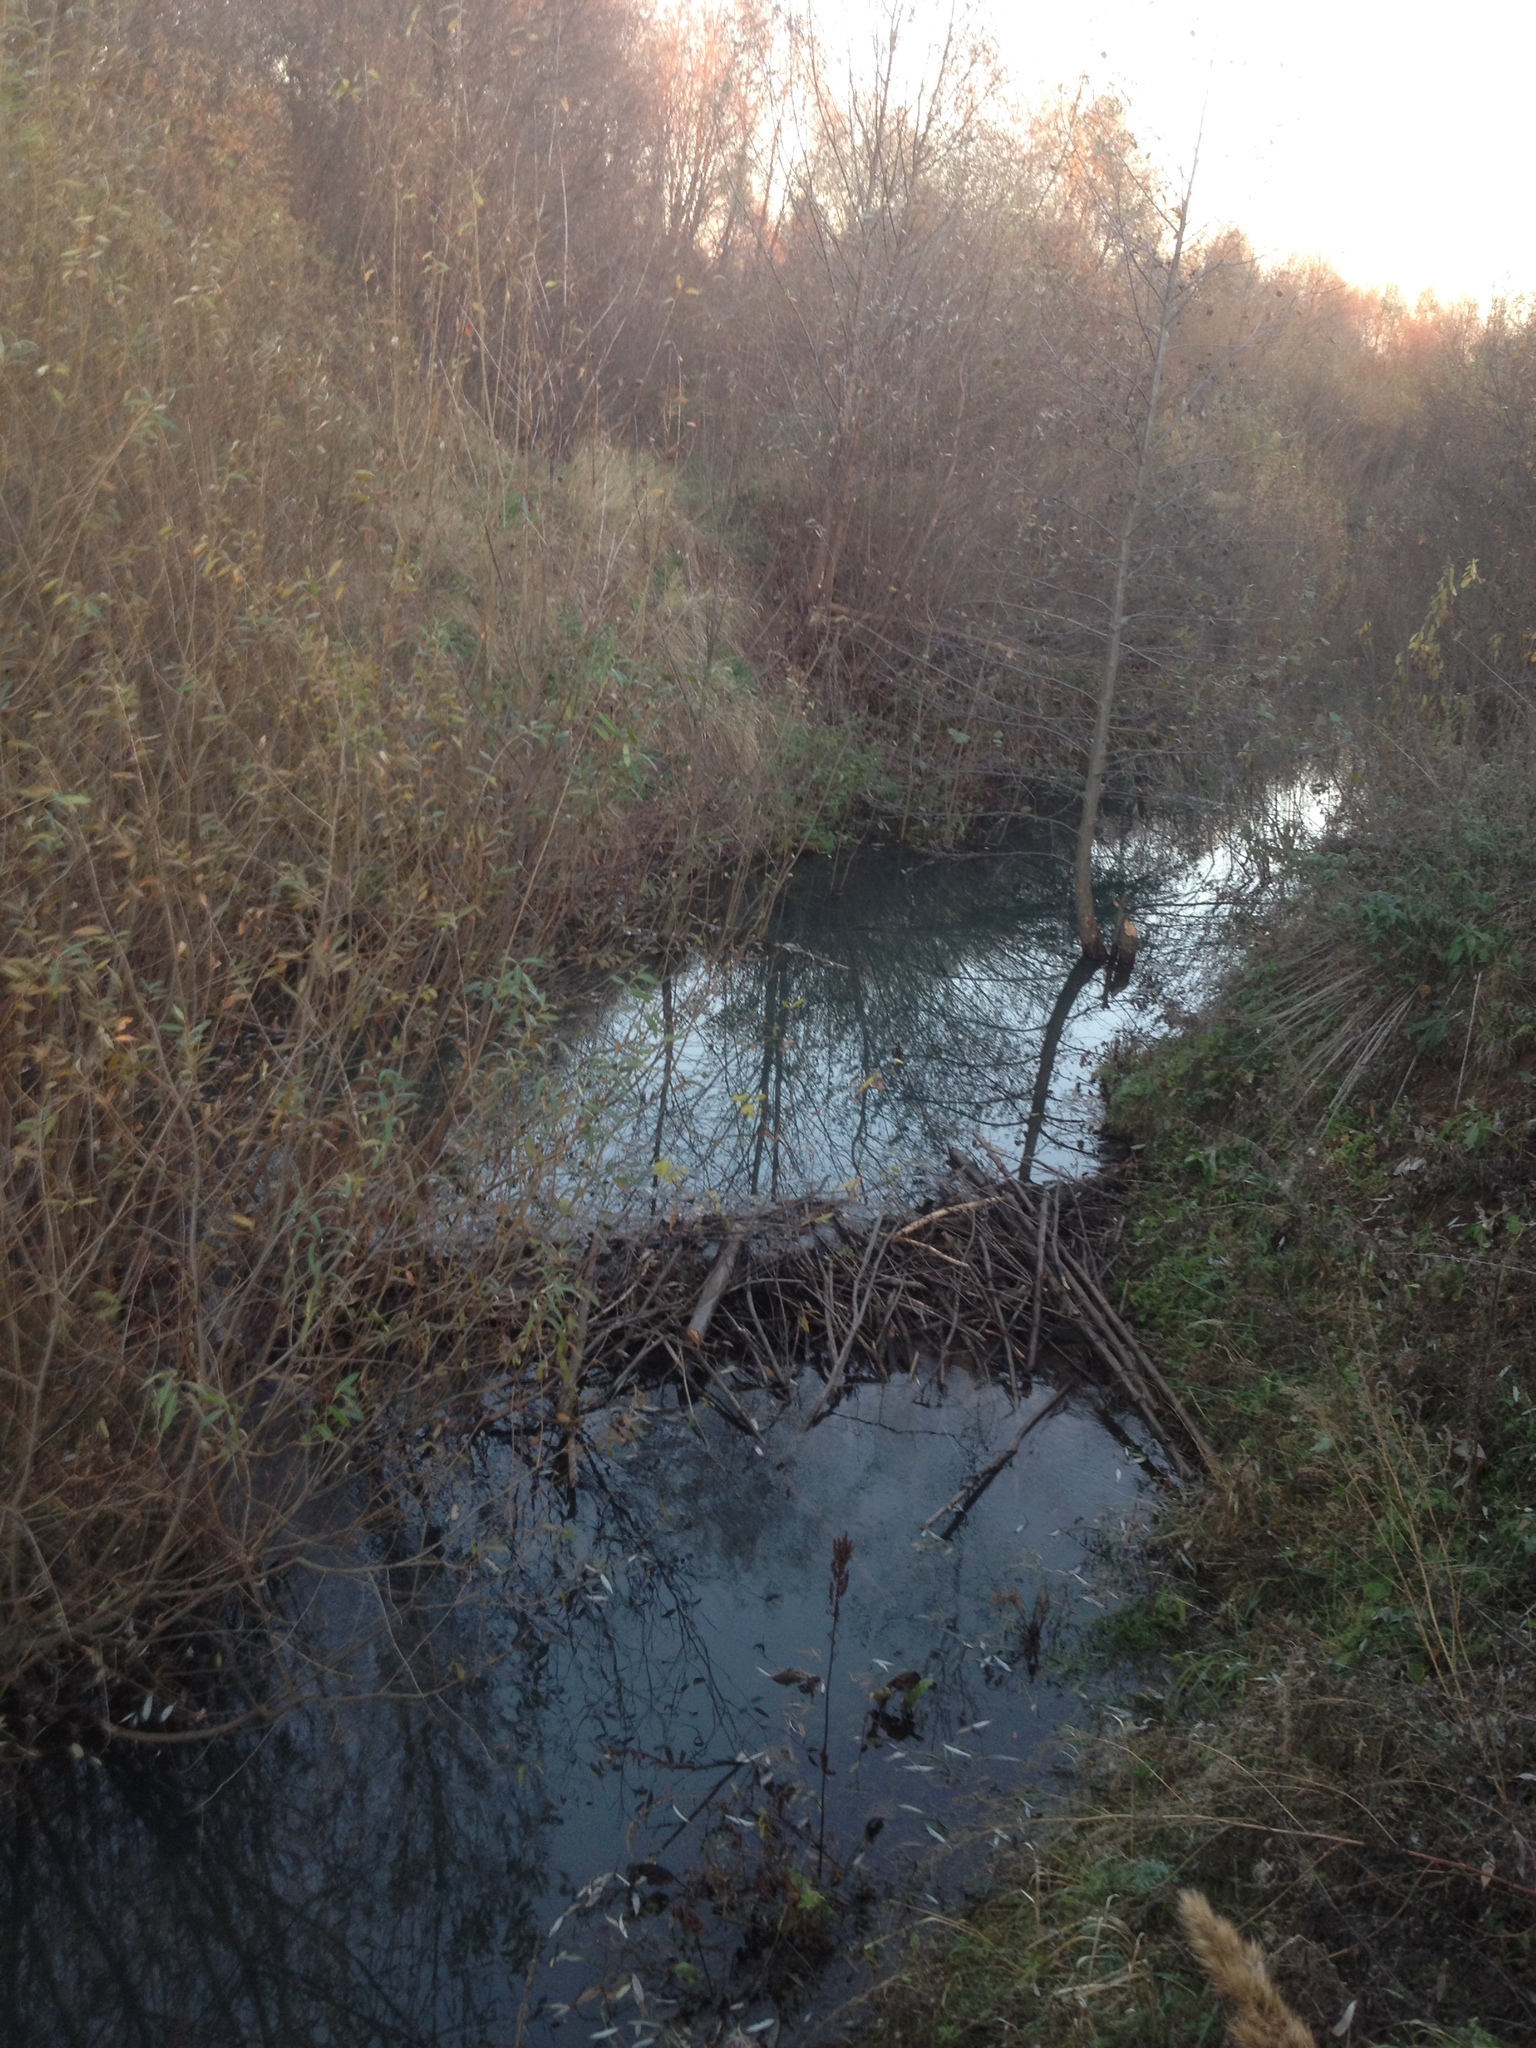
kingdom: Animalia
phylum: Chordata
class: Mammalia
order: Rodentia
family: Castoridae
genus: Castor
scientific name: Castor fiber
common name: Eurasian beaver
